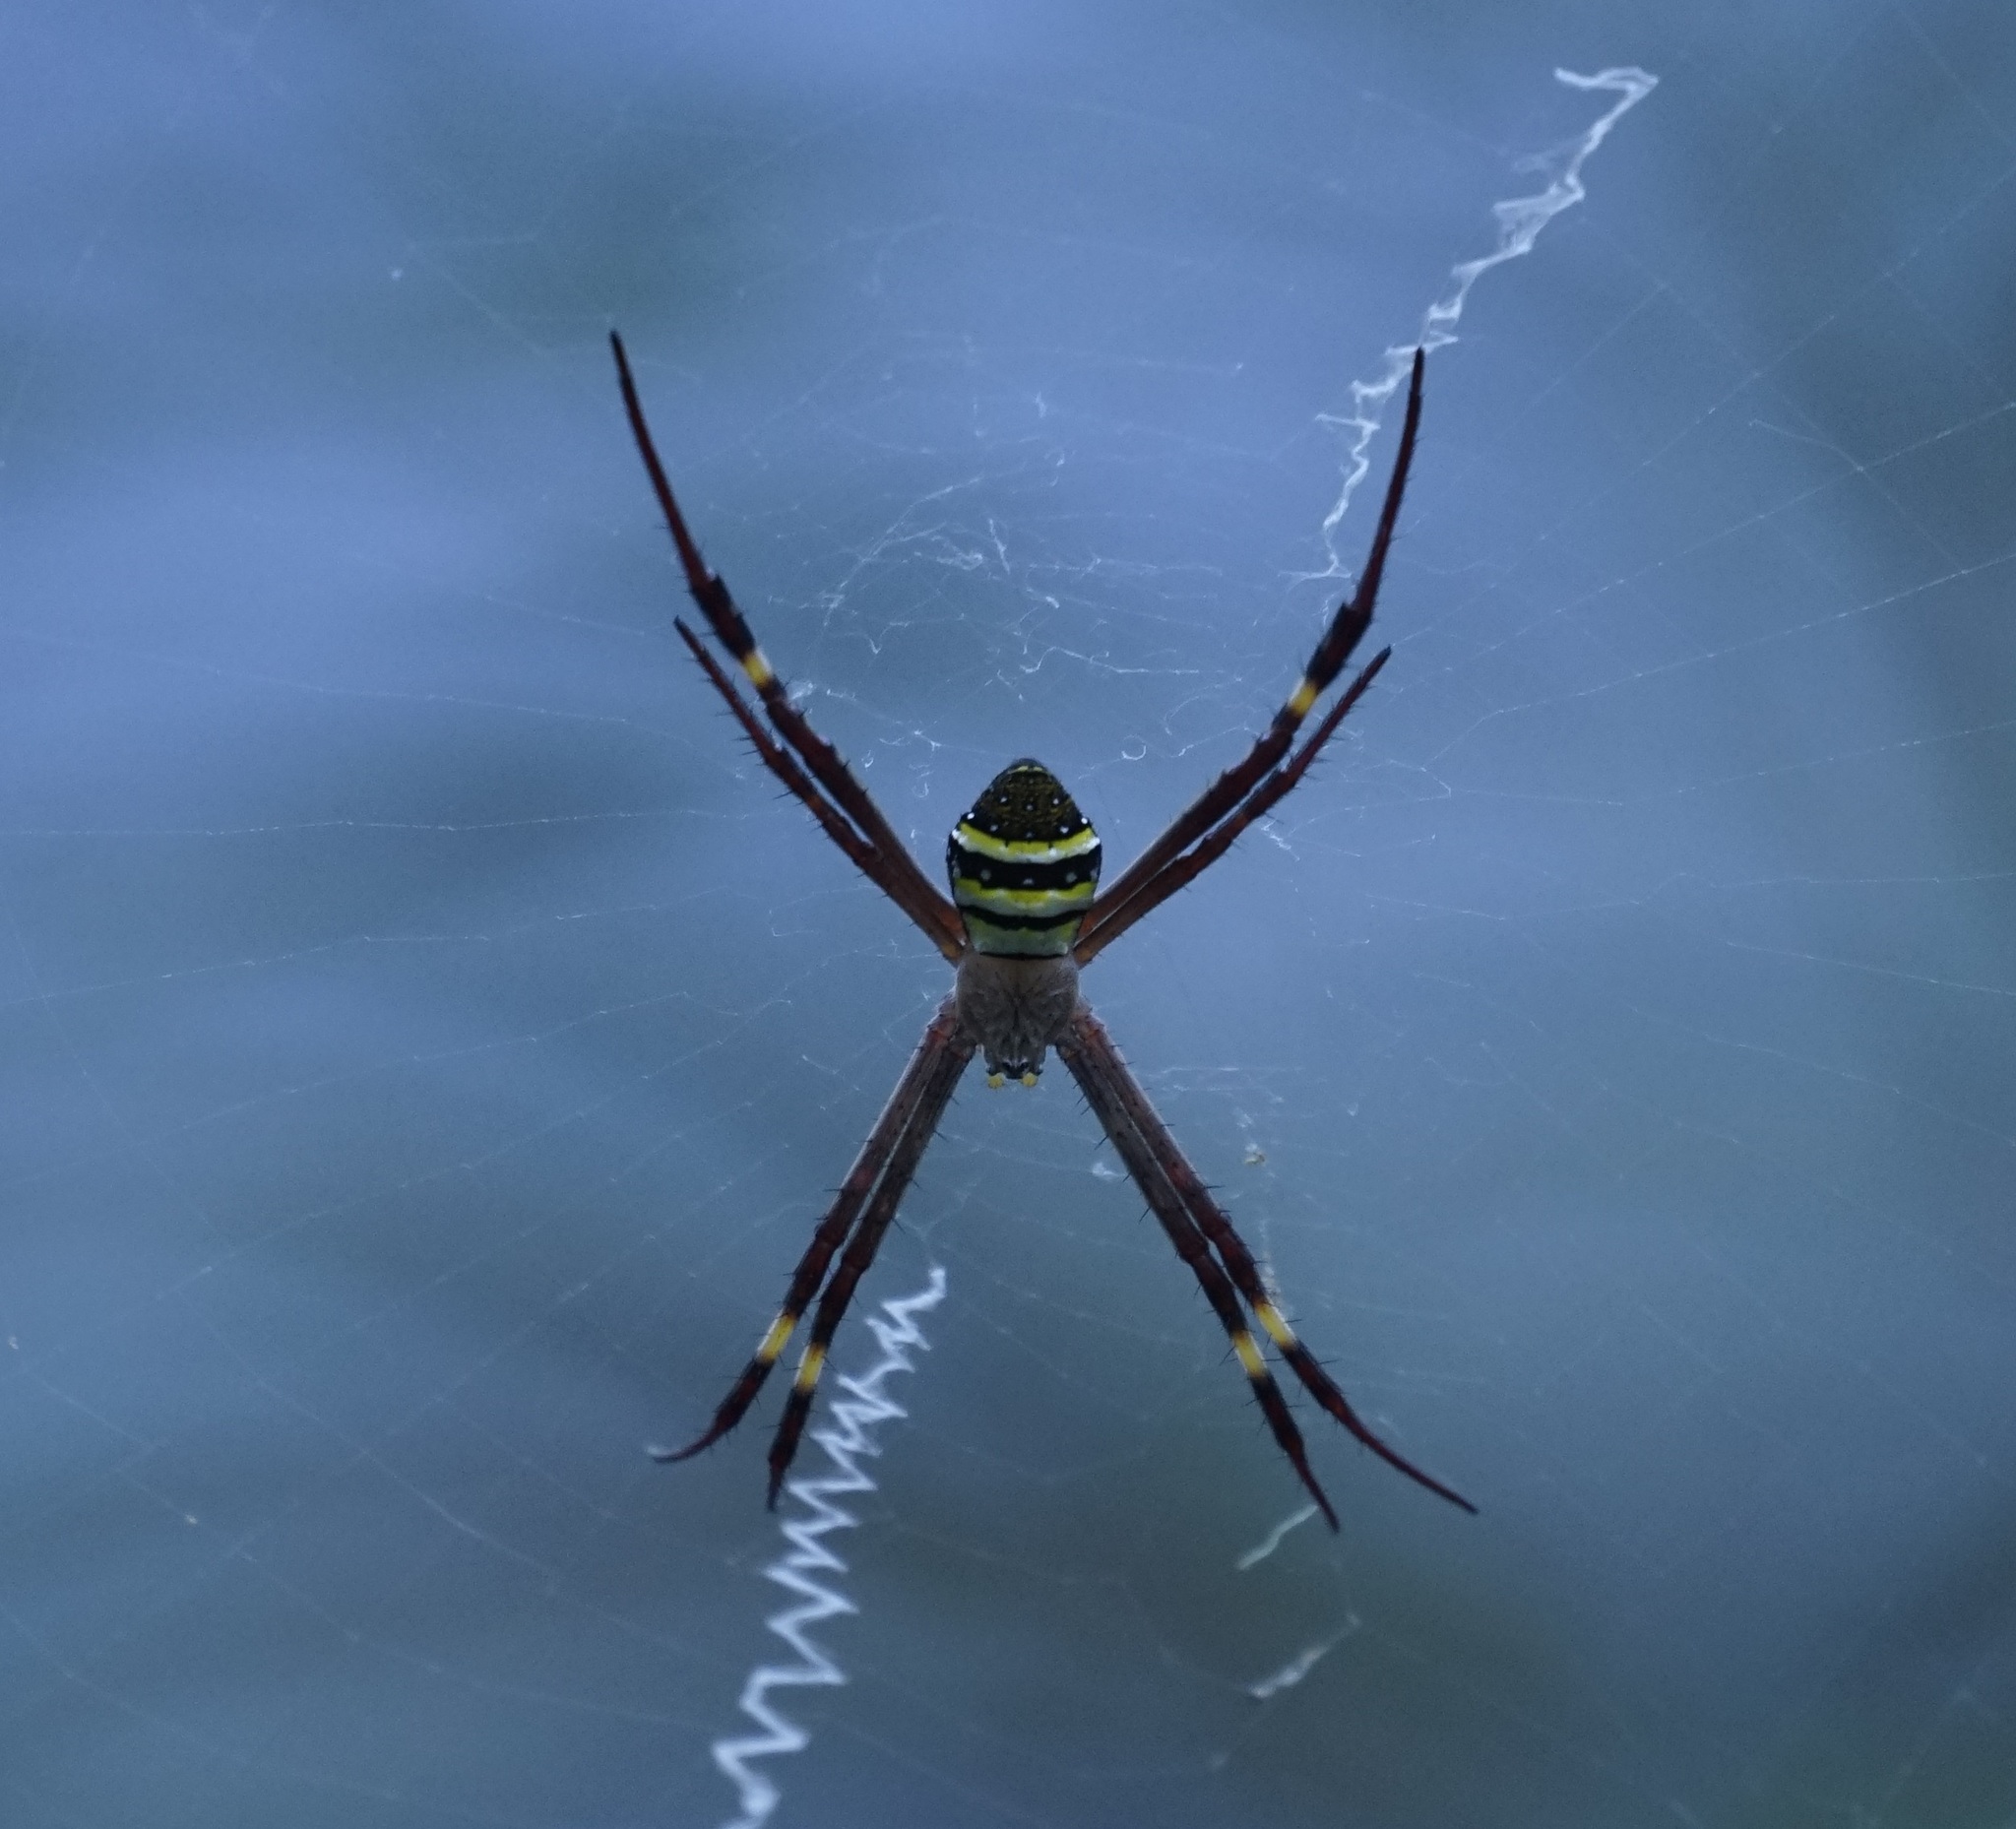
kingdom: Animalia
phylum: Arthropoda
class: Arachnida
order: Araneae
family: Araneidae
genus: Argiope
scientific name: Argiope keyserlingi
